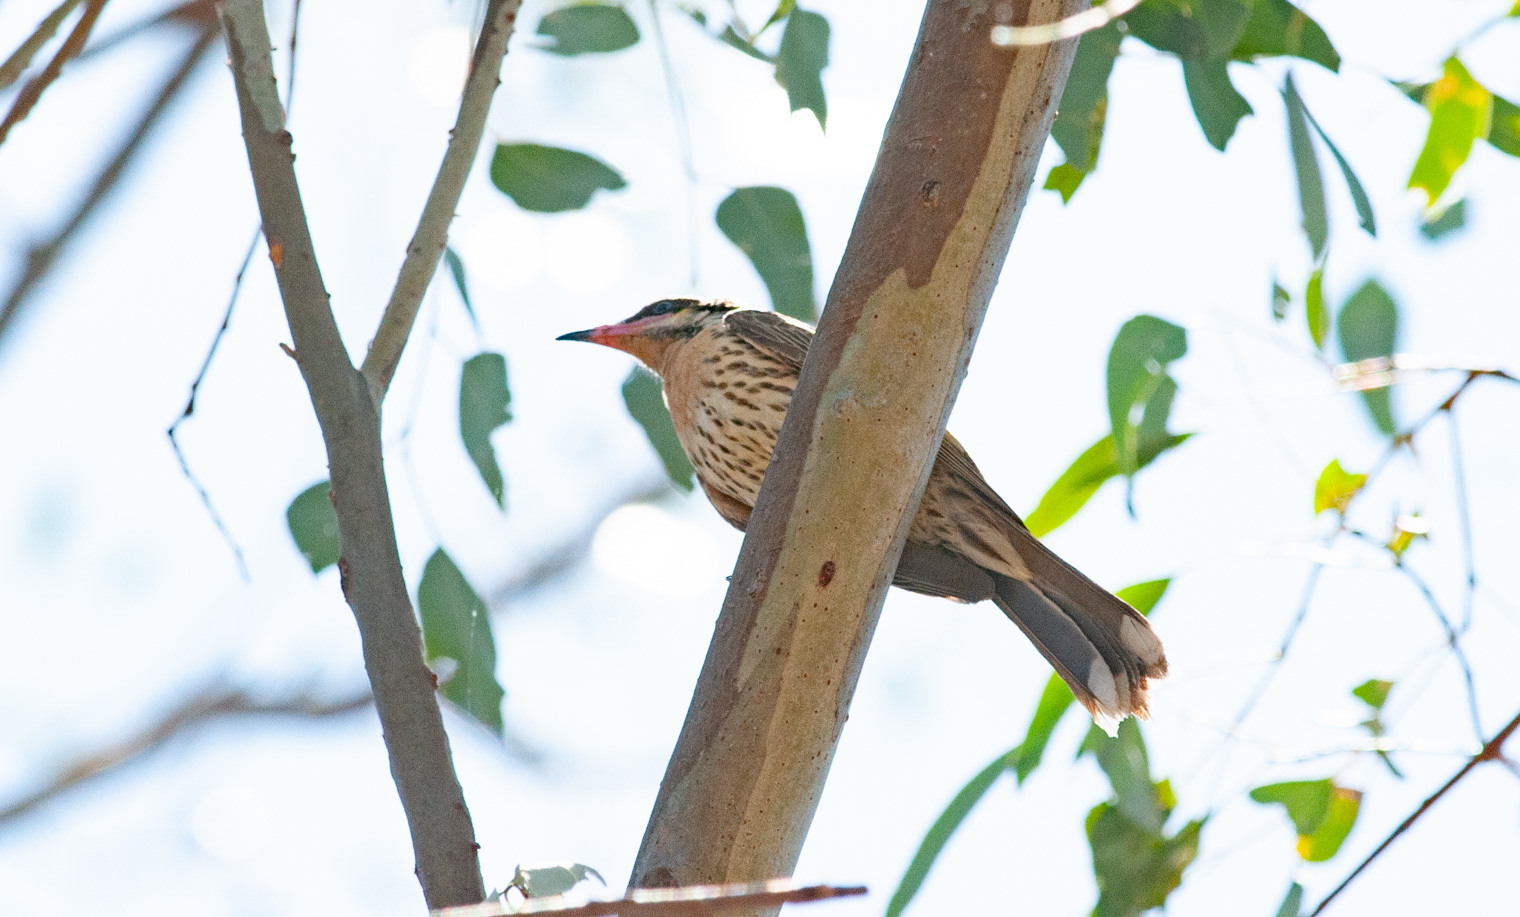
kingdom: Animalia
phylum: Chordata
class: Aves
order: Passeriformes
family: Meliphagidae
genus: Acanthagenys
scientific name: Acanthagenys rufogularis
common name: Spiny-cheeked honeyeater
